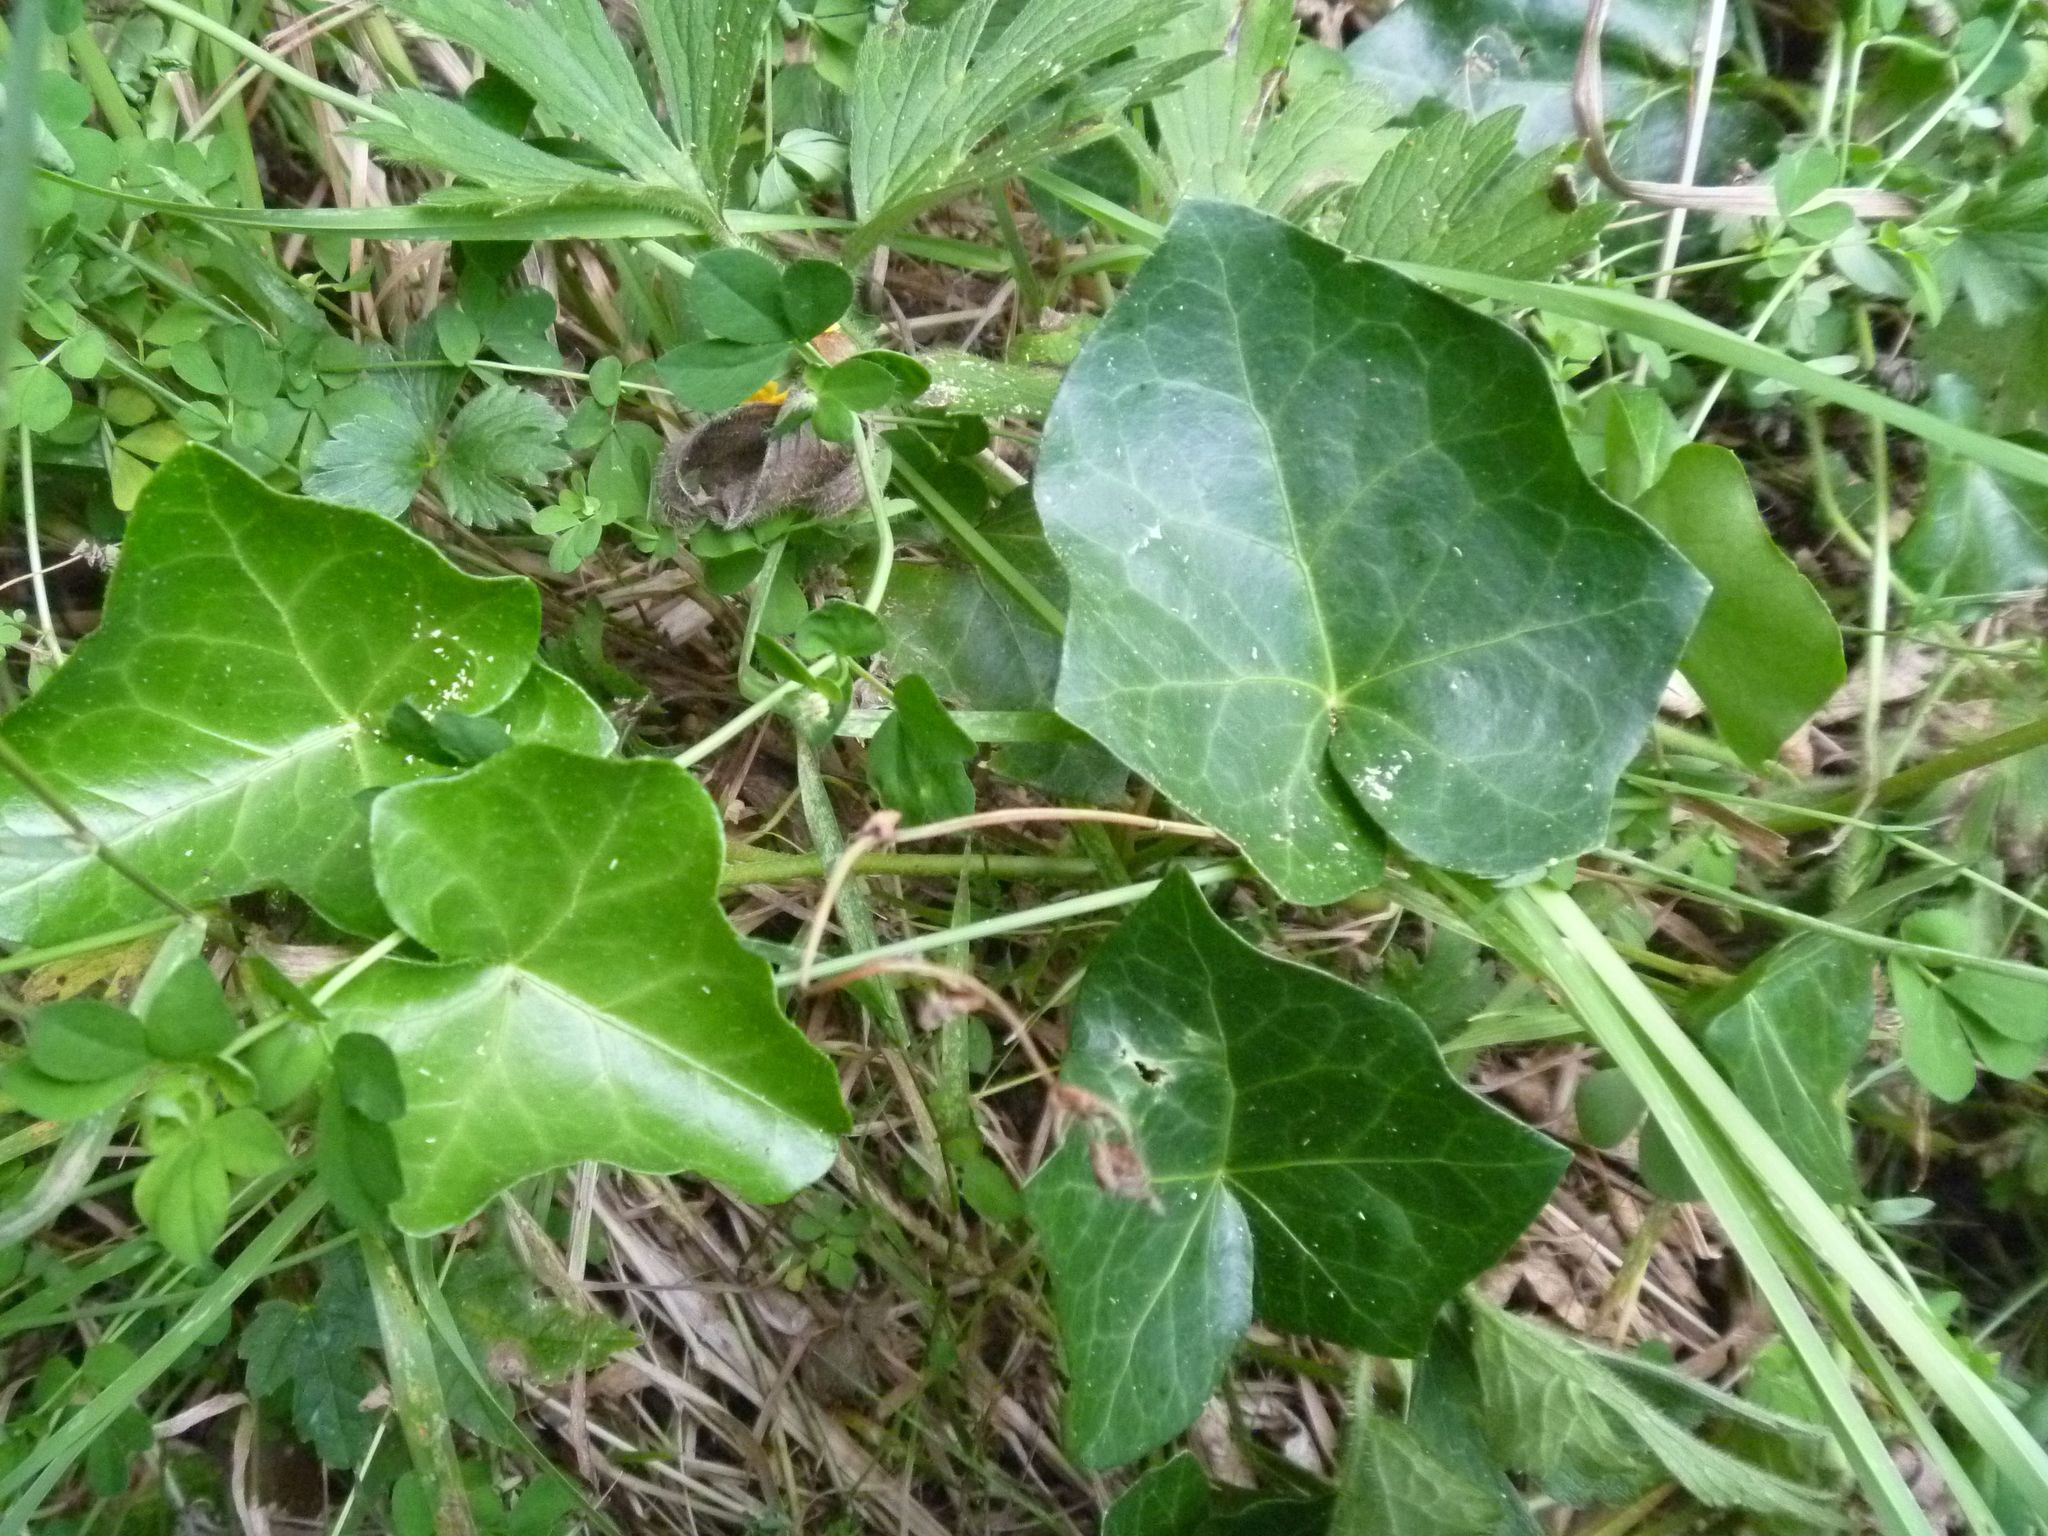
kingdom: Plantae
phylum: Tracheophyta
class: Magnoliopsida
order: Apiales
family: Araliaceae
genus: Hedera
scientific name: Hedera helix
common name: Ivy
